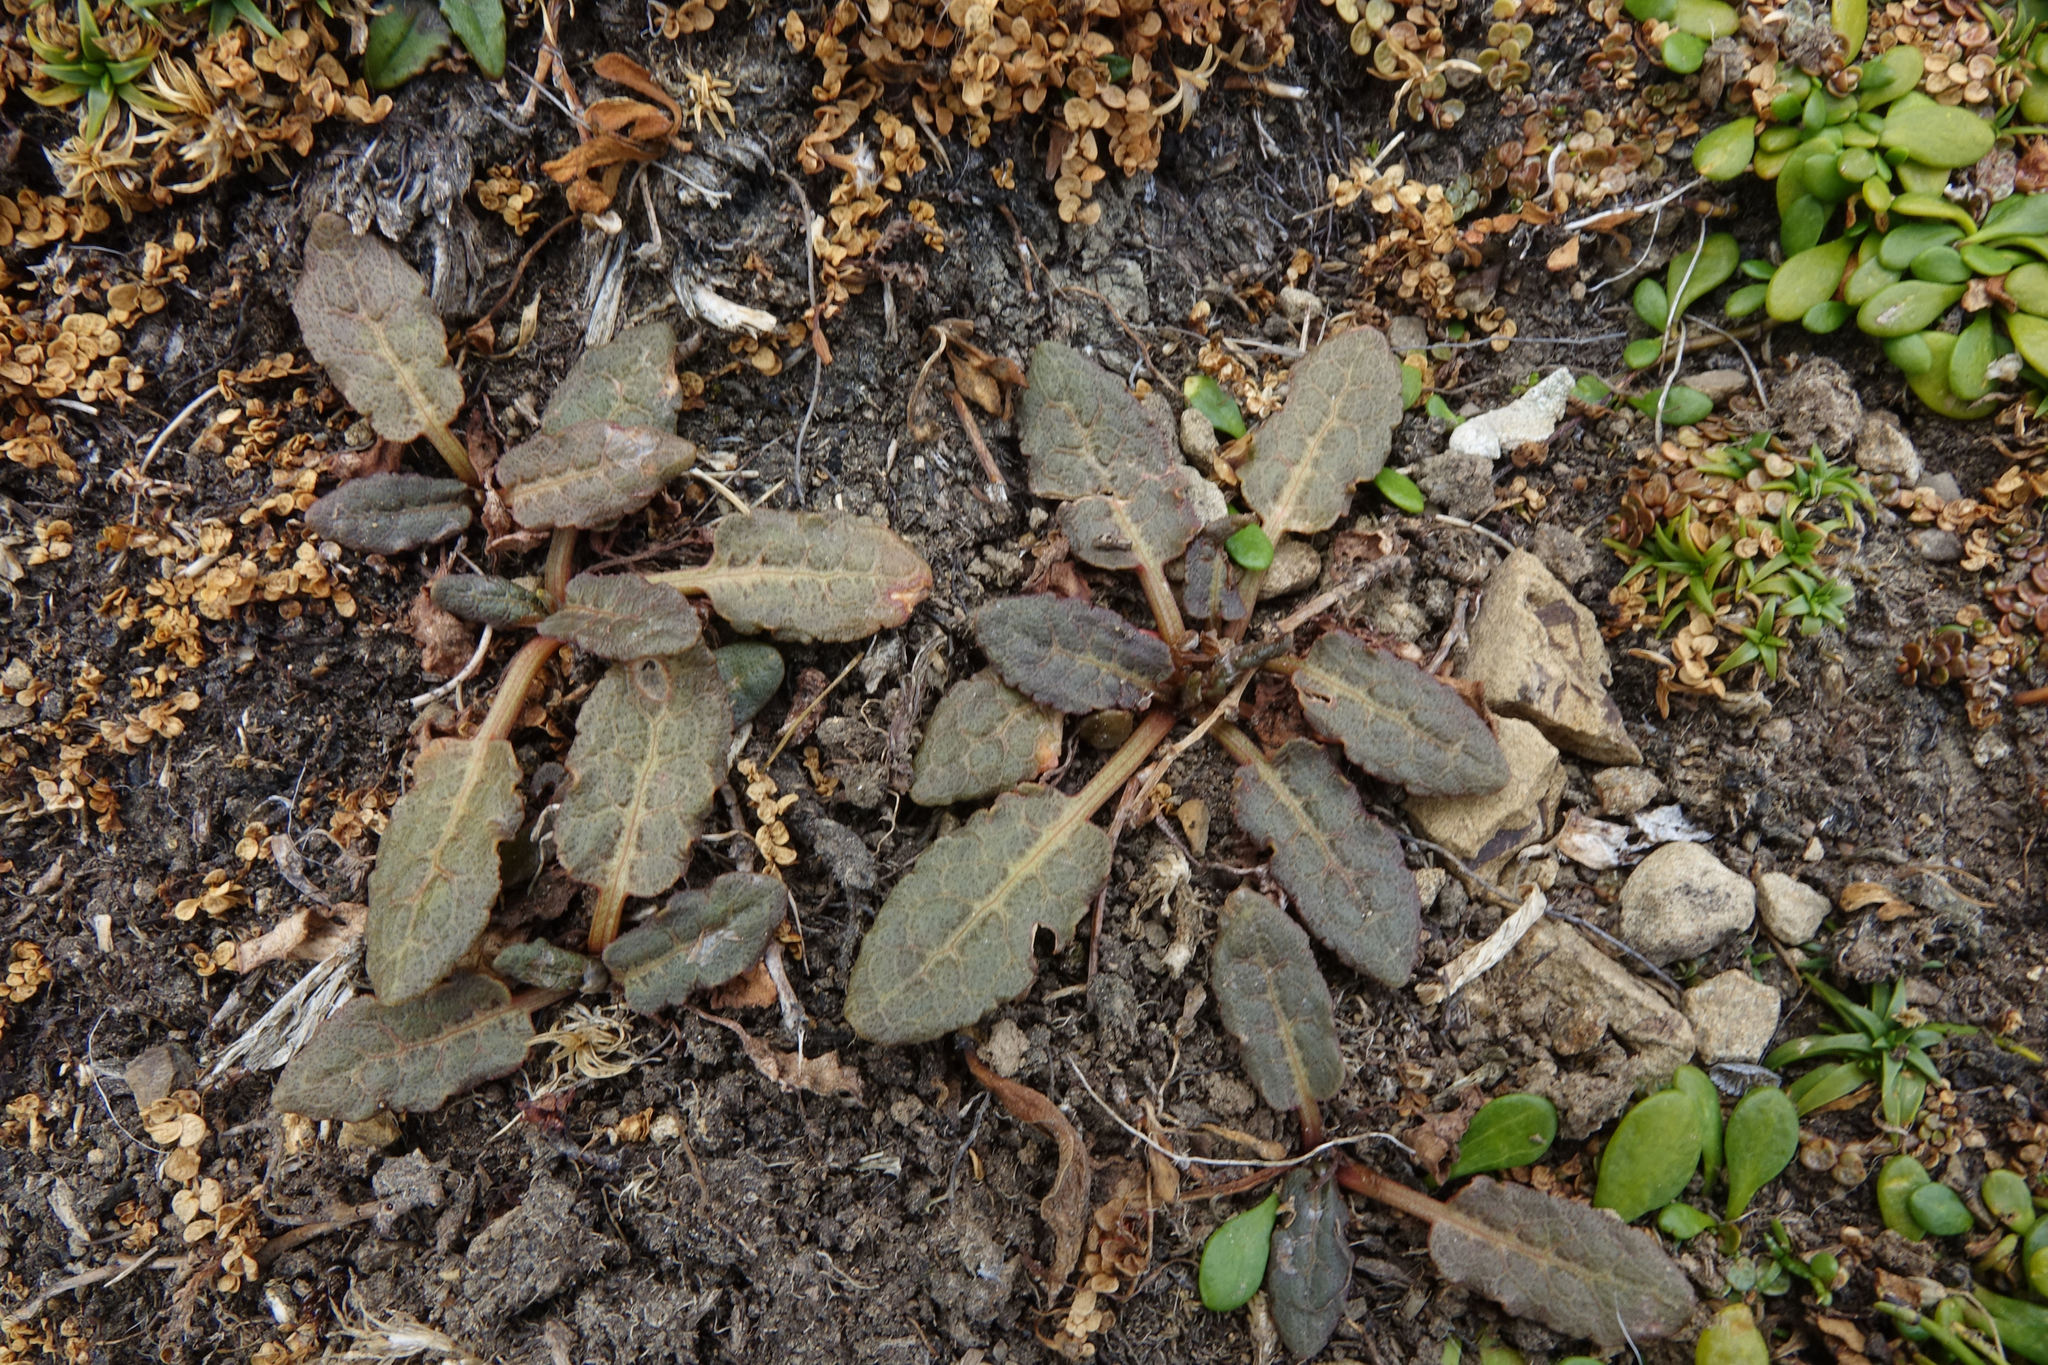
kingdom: Plantae
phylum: Tracheophyta
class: Magnoliopsida
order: Caryophyllales
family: Polygonaceae
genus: Rumex
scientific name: Rumex neglectus
